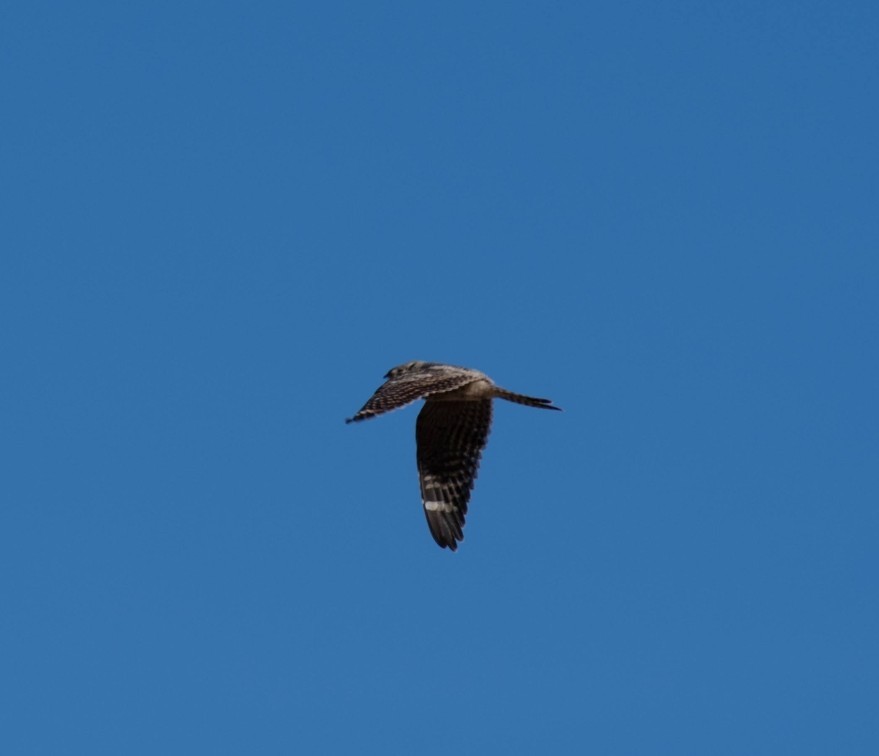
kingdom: Animalia
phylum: Chordata
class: Aves
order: Caprimulgiformes
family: Caprimulgidae
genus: Chordeiles
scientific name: Chordeiles acutipennis
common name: Lesser nighthawk
